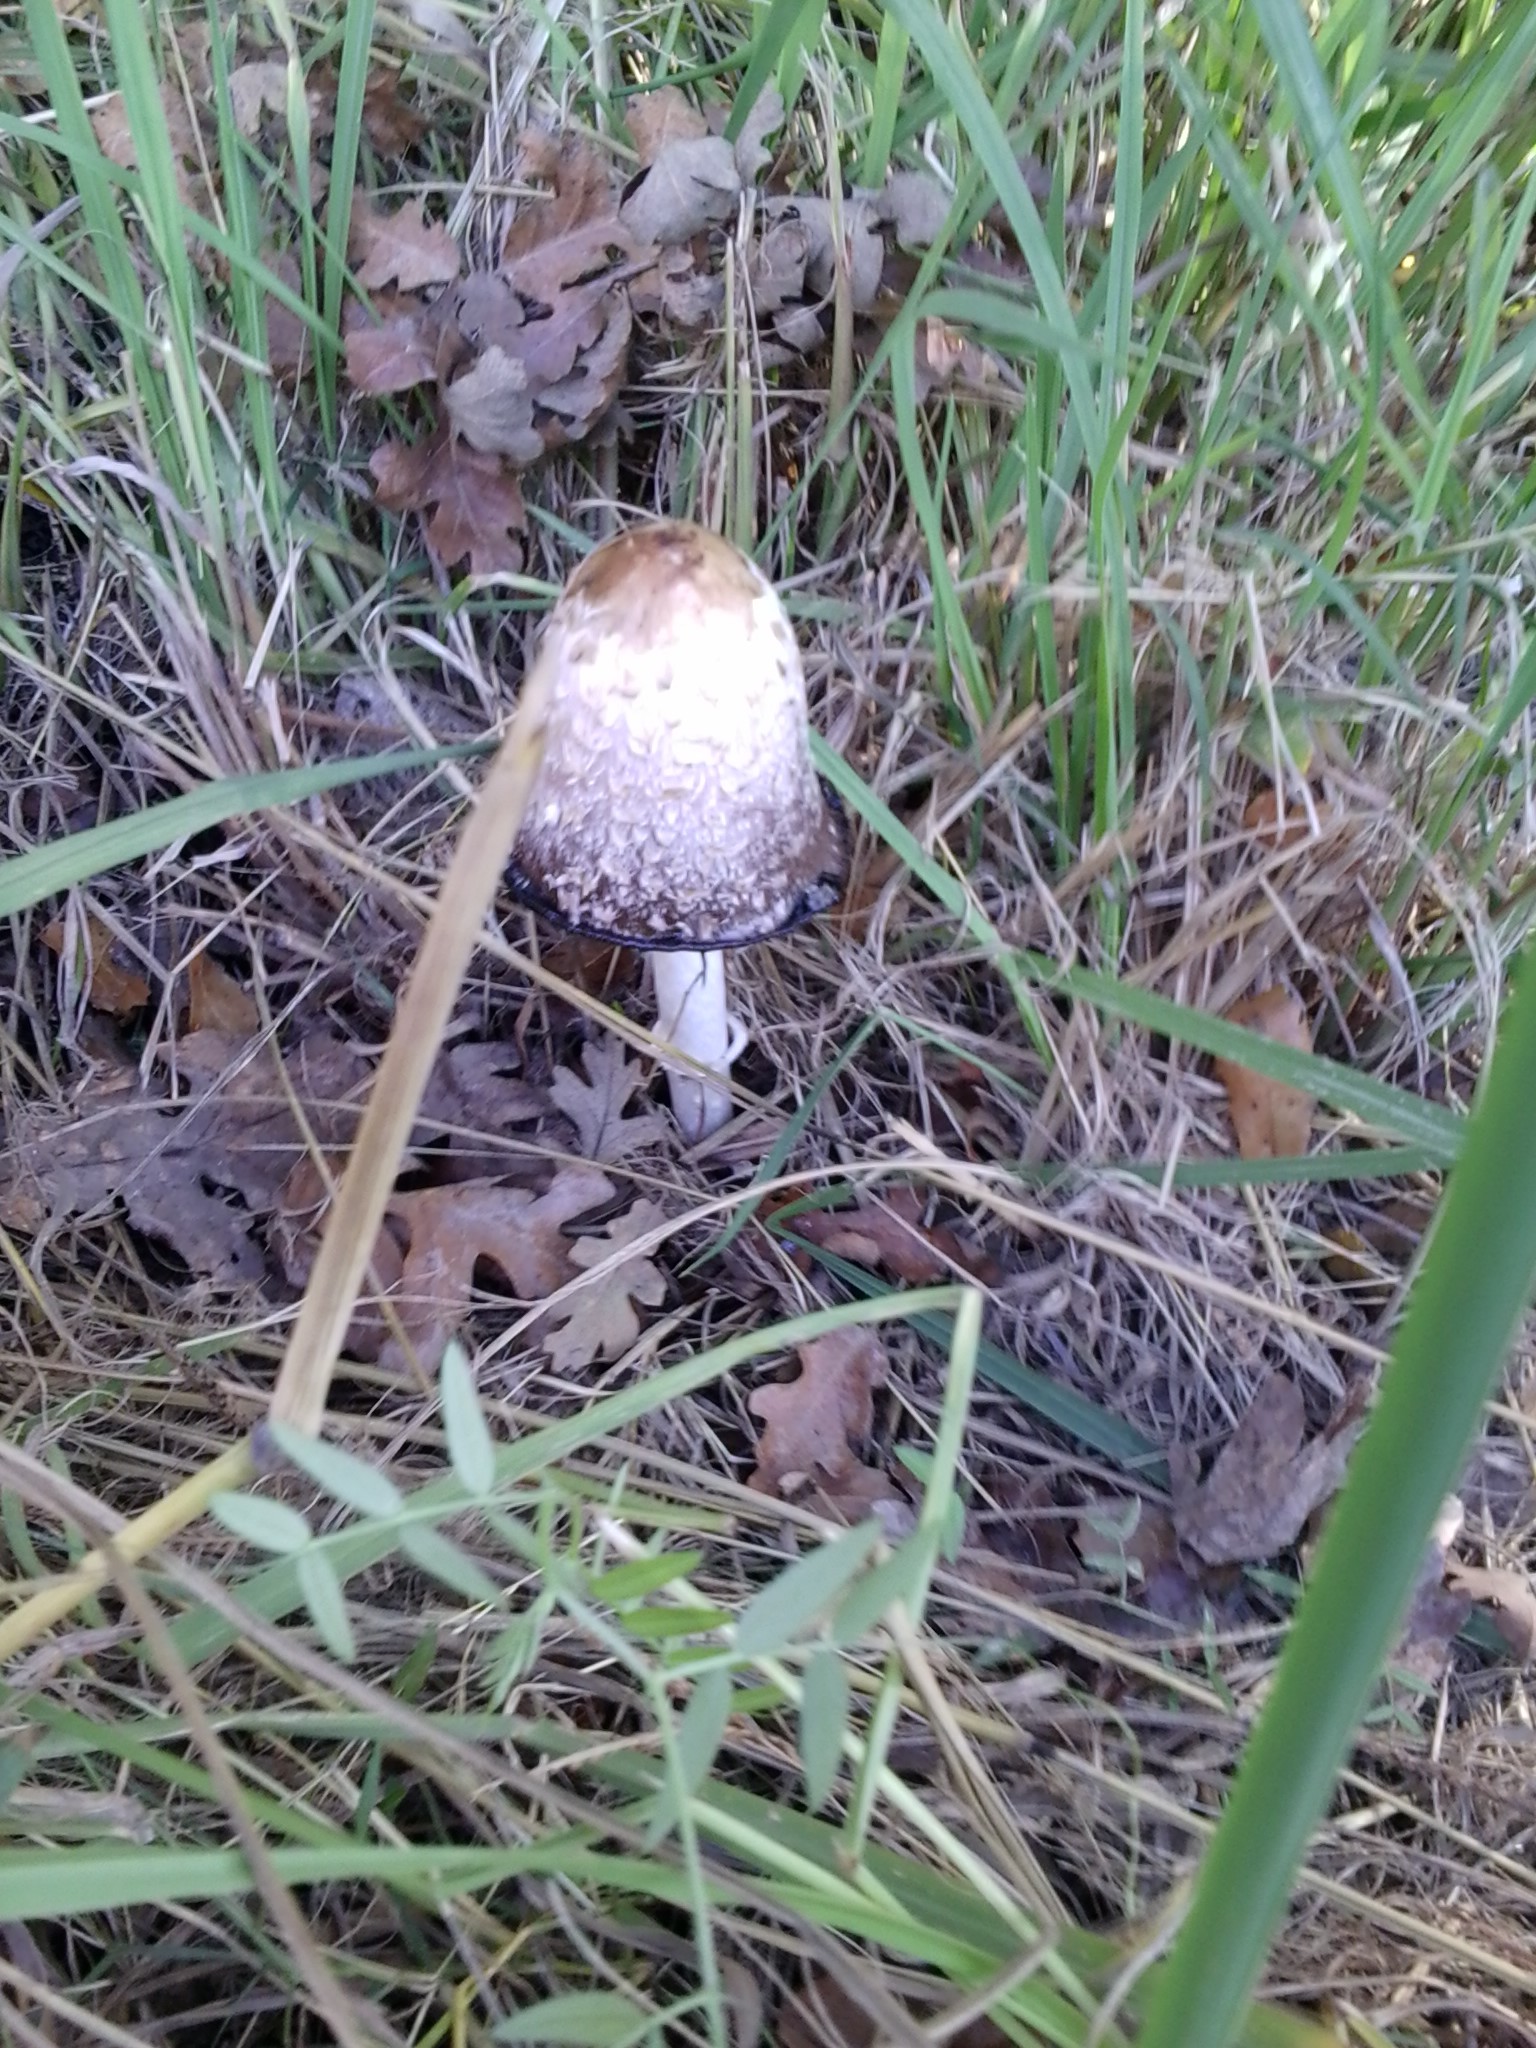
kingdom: Fungi
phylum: Basidiomycota
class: Agaricomycetes
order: Agaricales
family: Agaricaceae
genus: Coprinus
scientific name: Coprinus comatus
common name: Lawyer's wig
